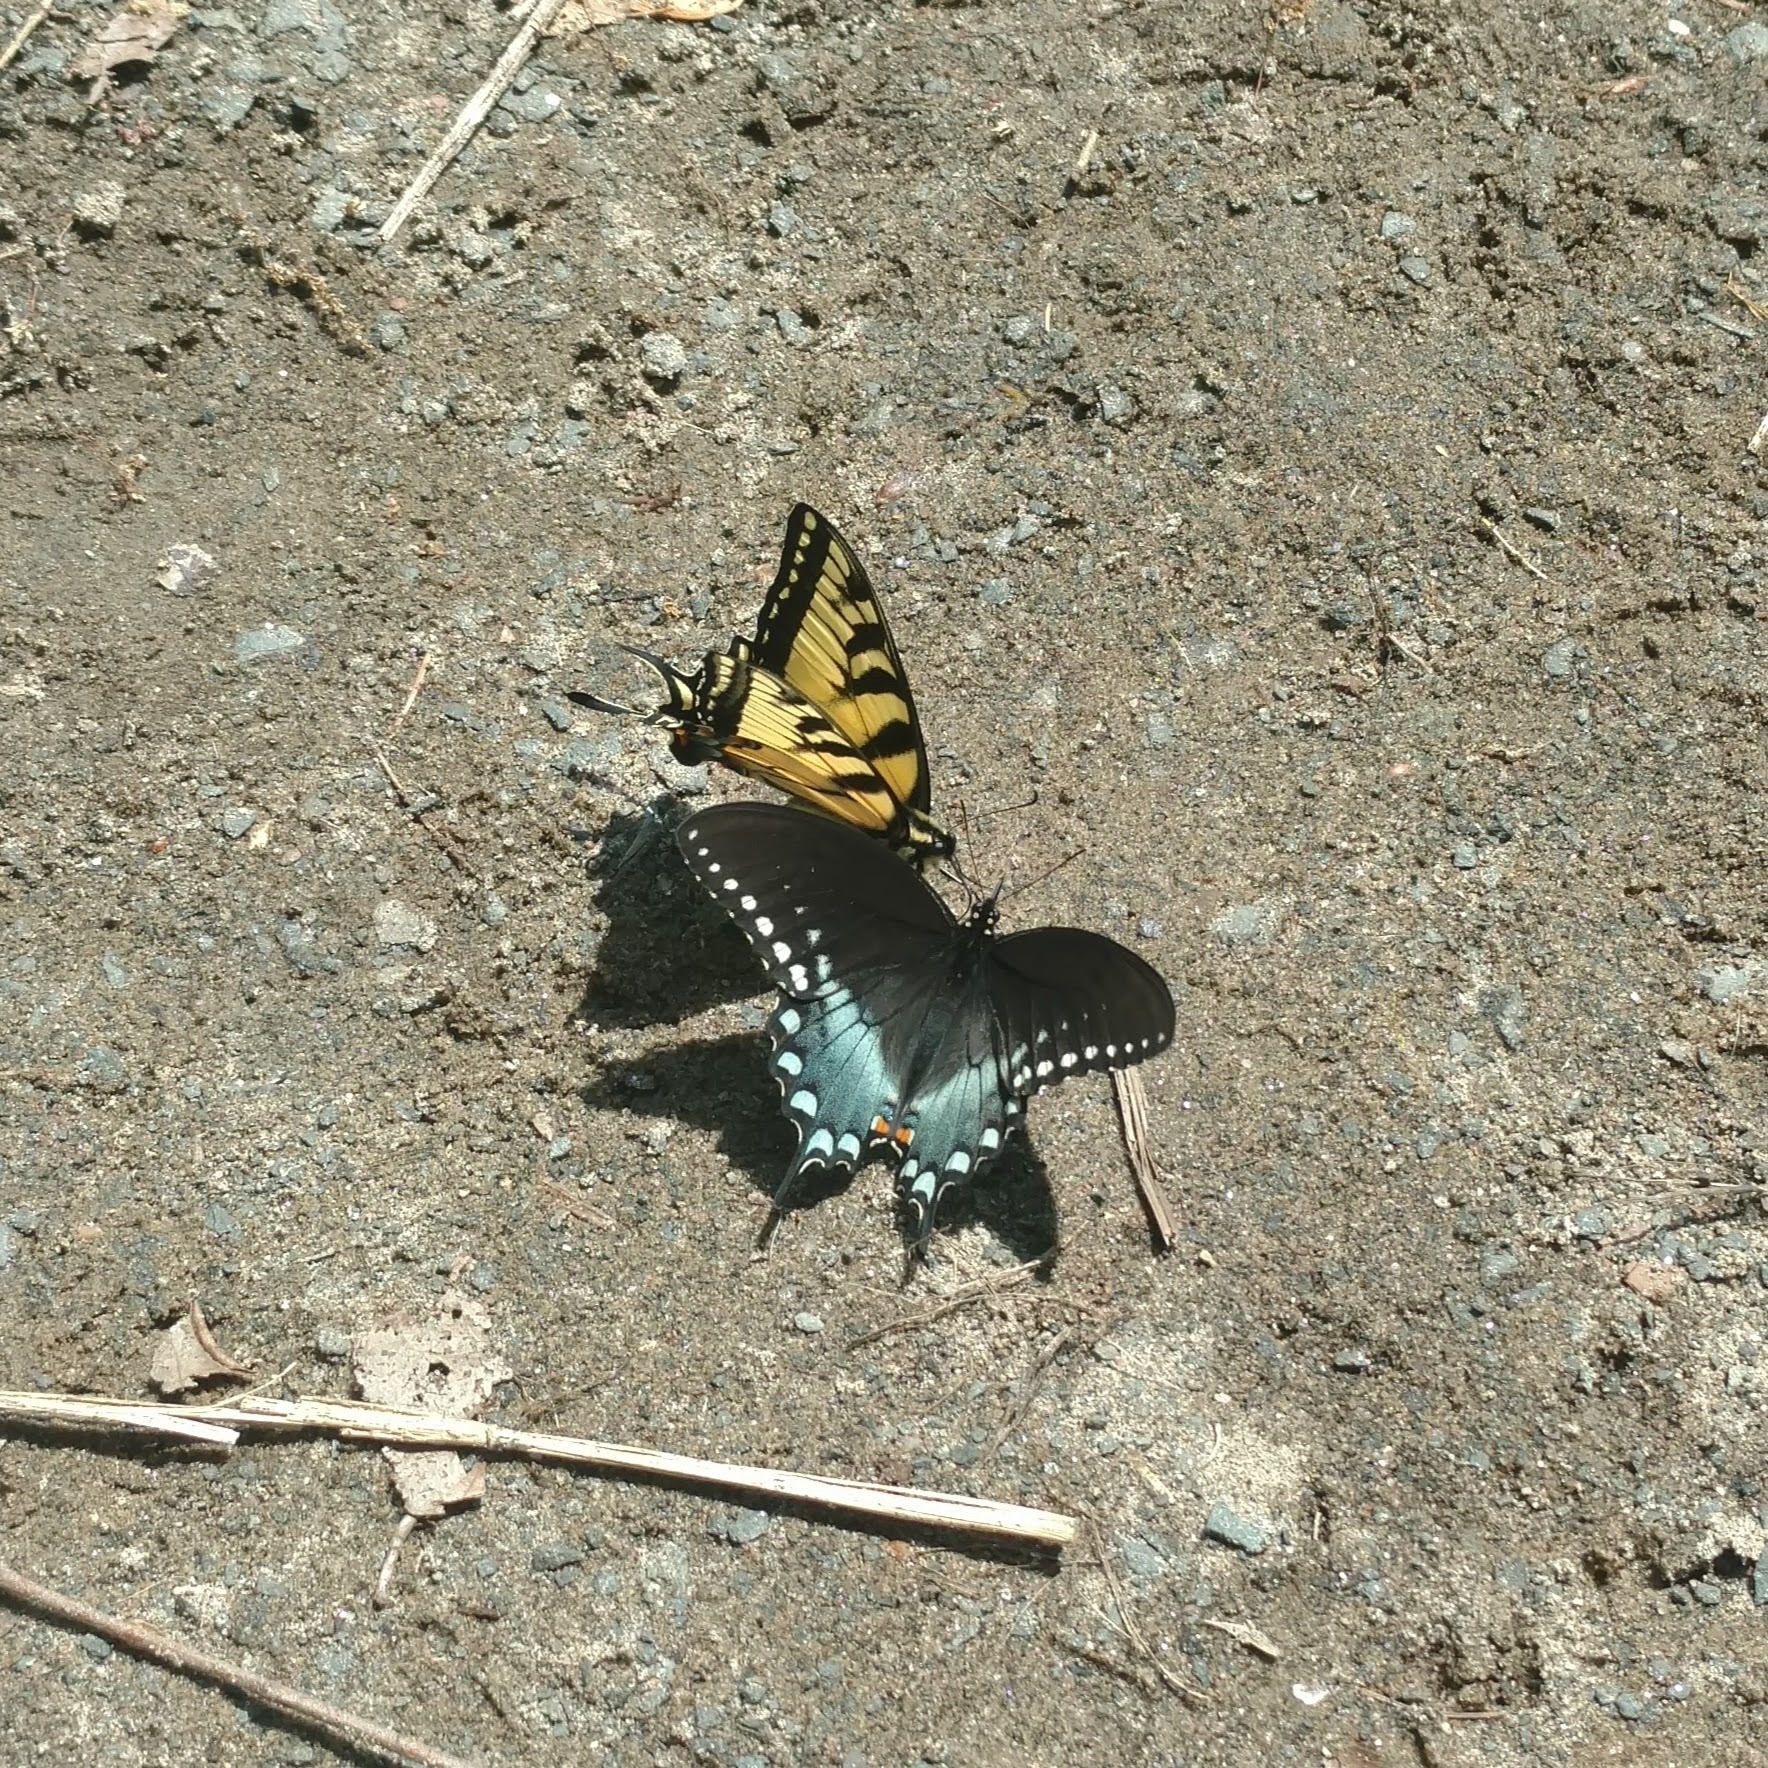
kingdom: Animalia
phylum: Arthropoda
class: Insecta
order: Lepidoptera
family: Papilionidae
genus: Papilio
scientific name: Papilio troilus
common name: Spicebush swallowtail
